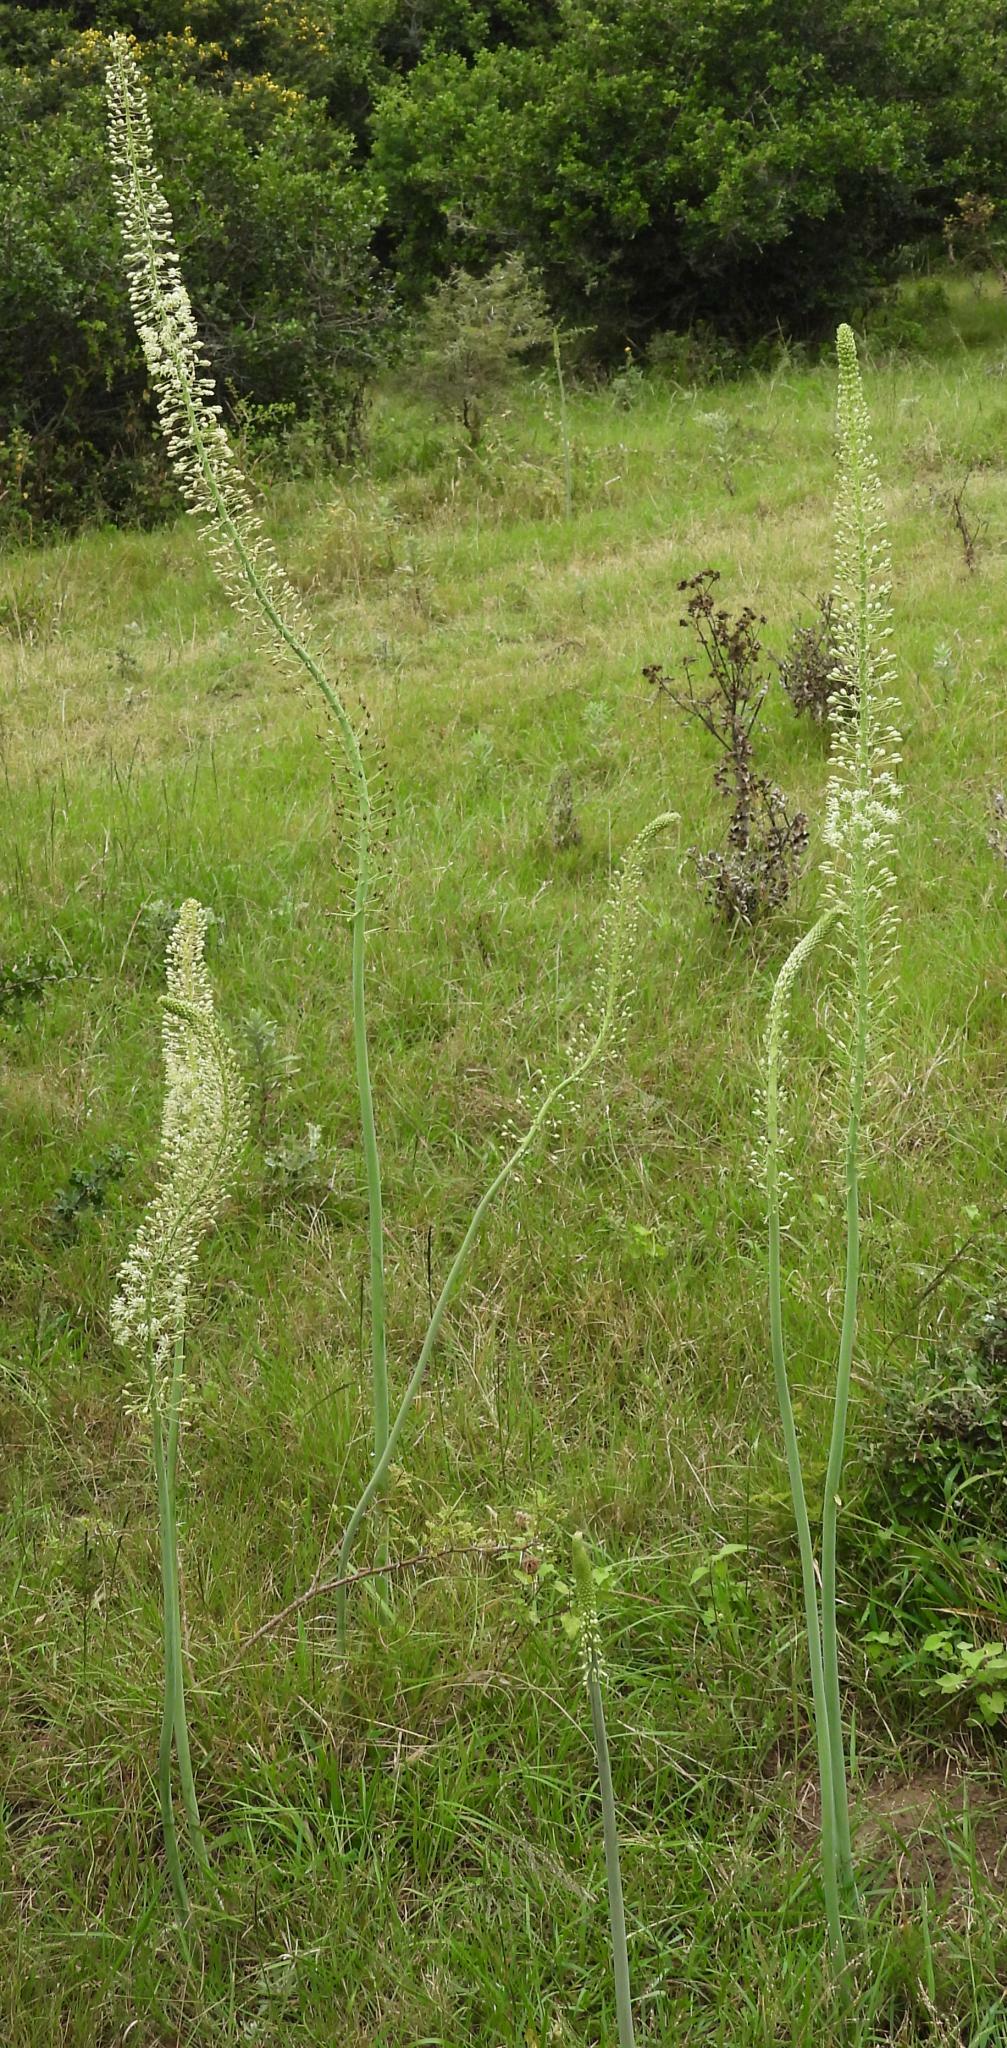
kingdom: Plantae
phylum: Tracheophyta
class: Liliopsida
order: Asparagales
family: Asparagaceae
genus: Drimia
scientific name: Drimia altissima
